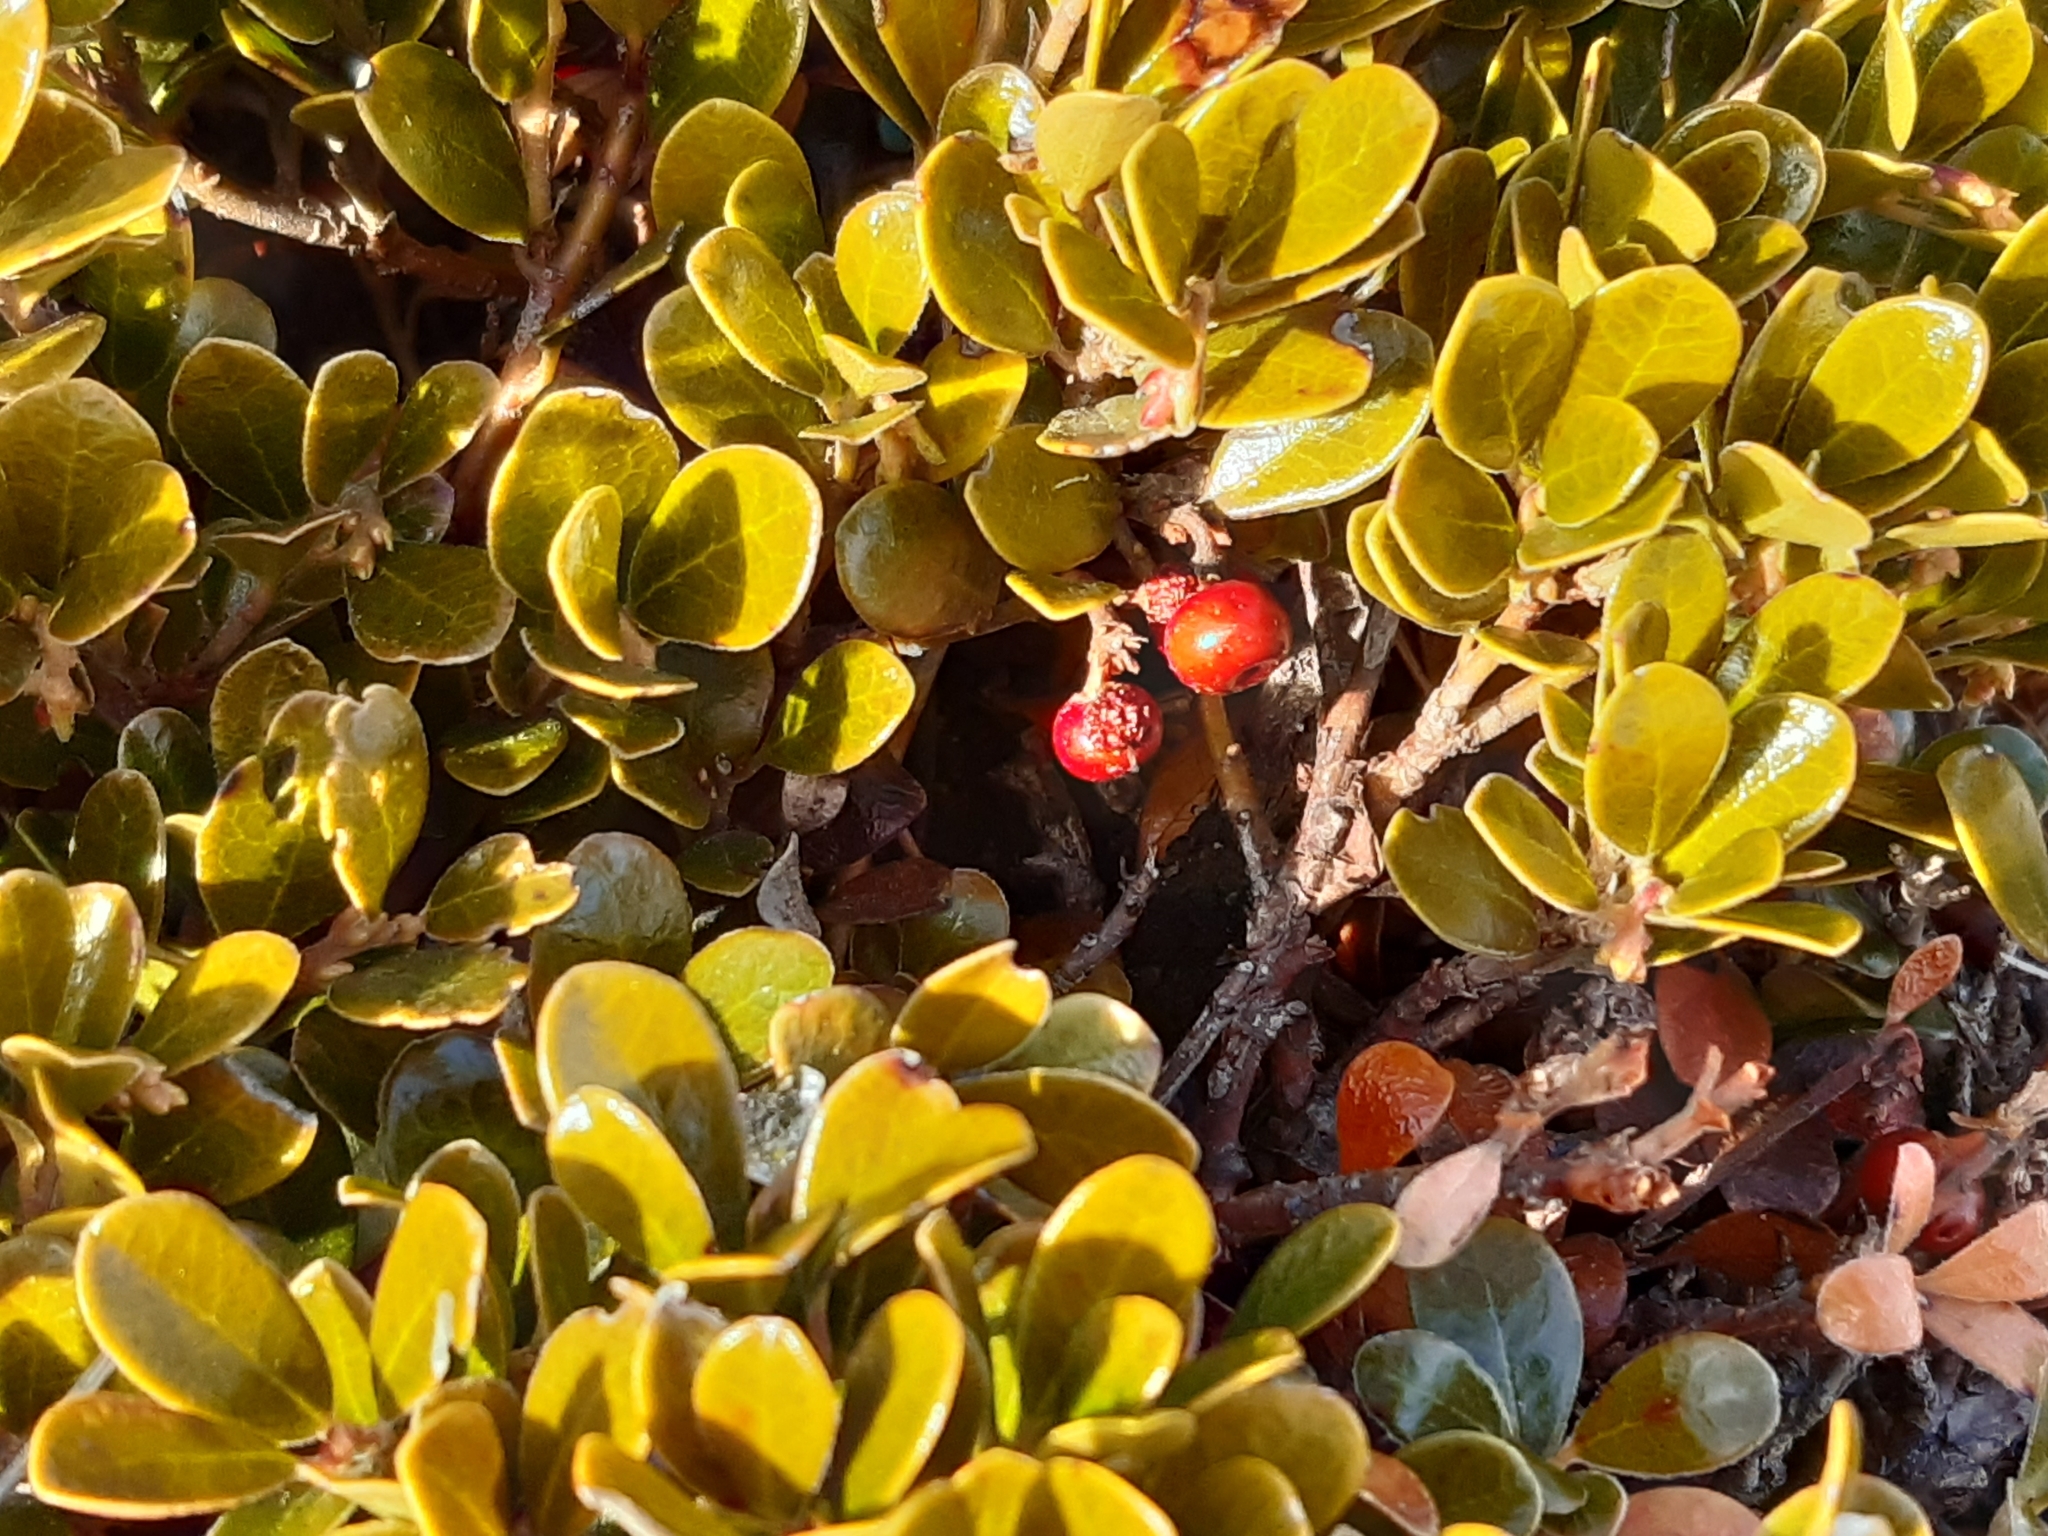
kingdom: Plantae
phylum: Tracheophyta
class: Magnoliopsida
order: Ericales
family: Ericaceae
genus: Arctostaphylos
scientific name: Arctostaphylos uva-ursi
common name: Bearberry
